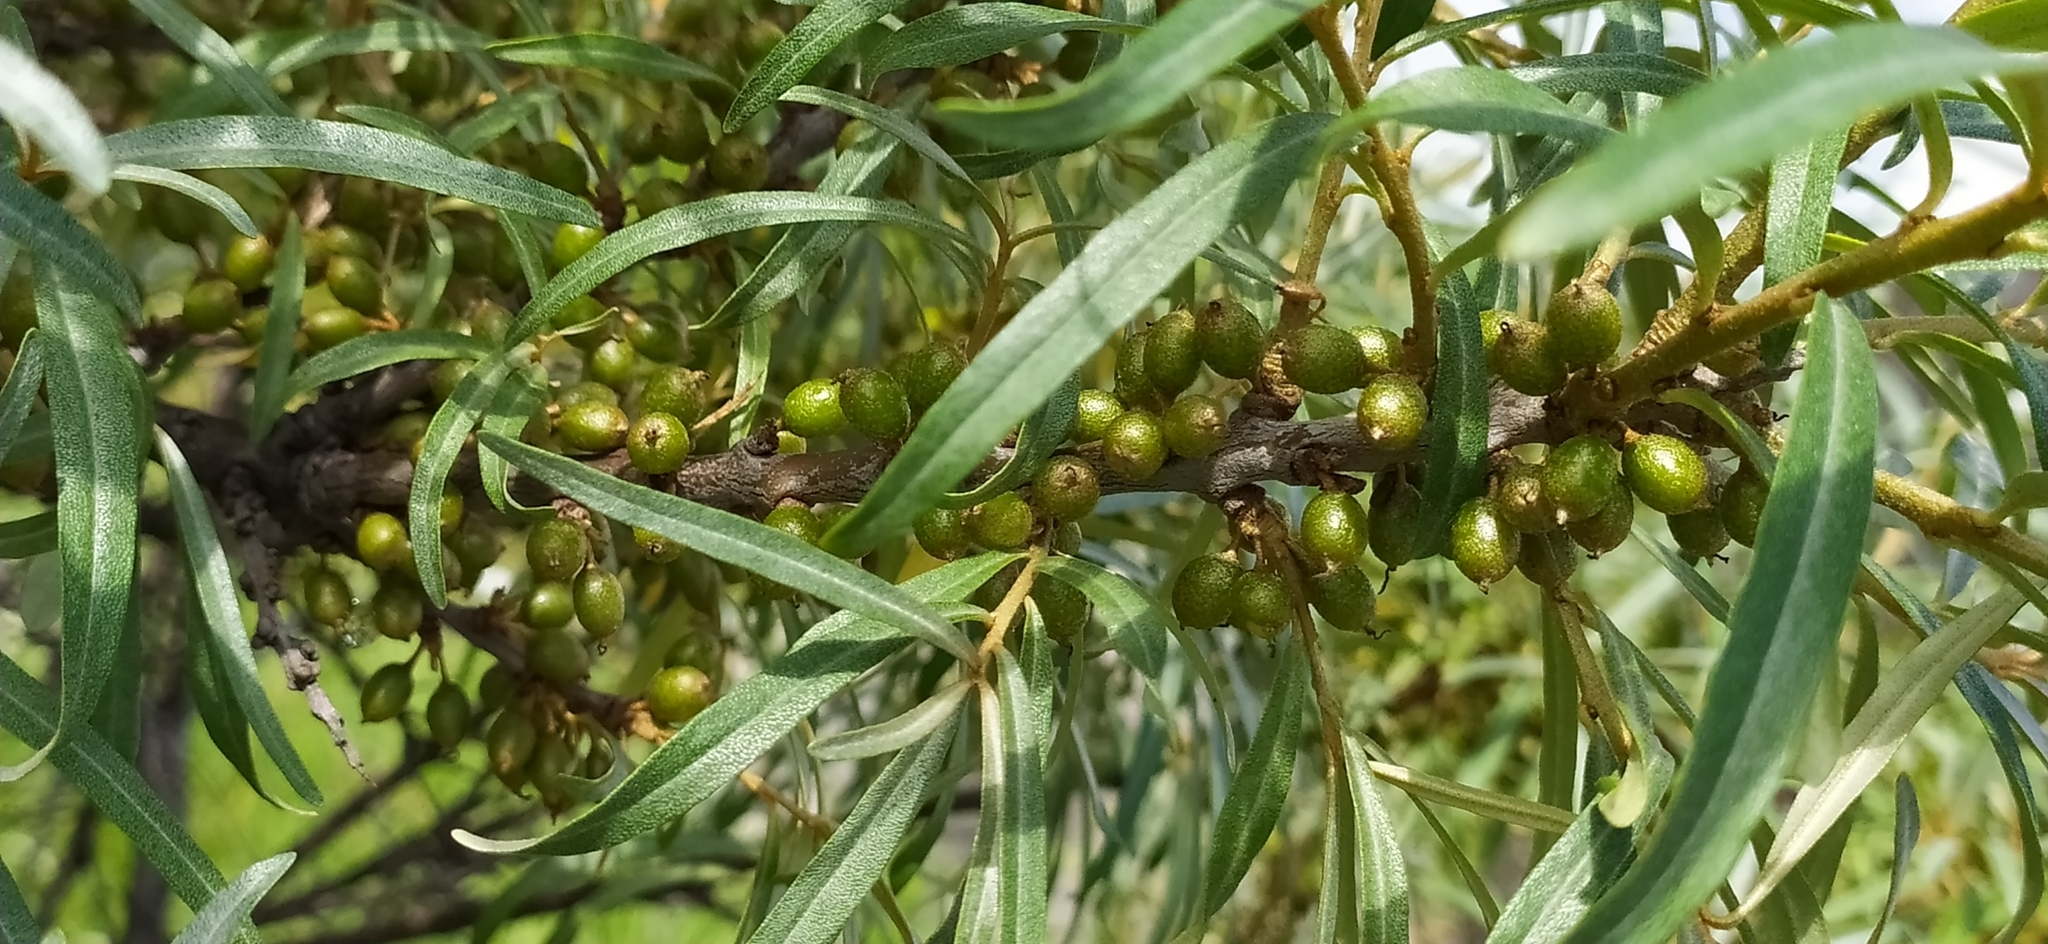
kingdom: Plantae
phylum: Tracheophyta
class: Magnoliopsida
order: Rosales
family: Elaeagnaceae
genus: Hippophae
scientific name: Hippophae rhamnoides
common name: Sea-buckthorn
